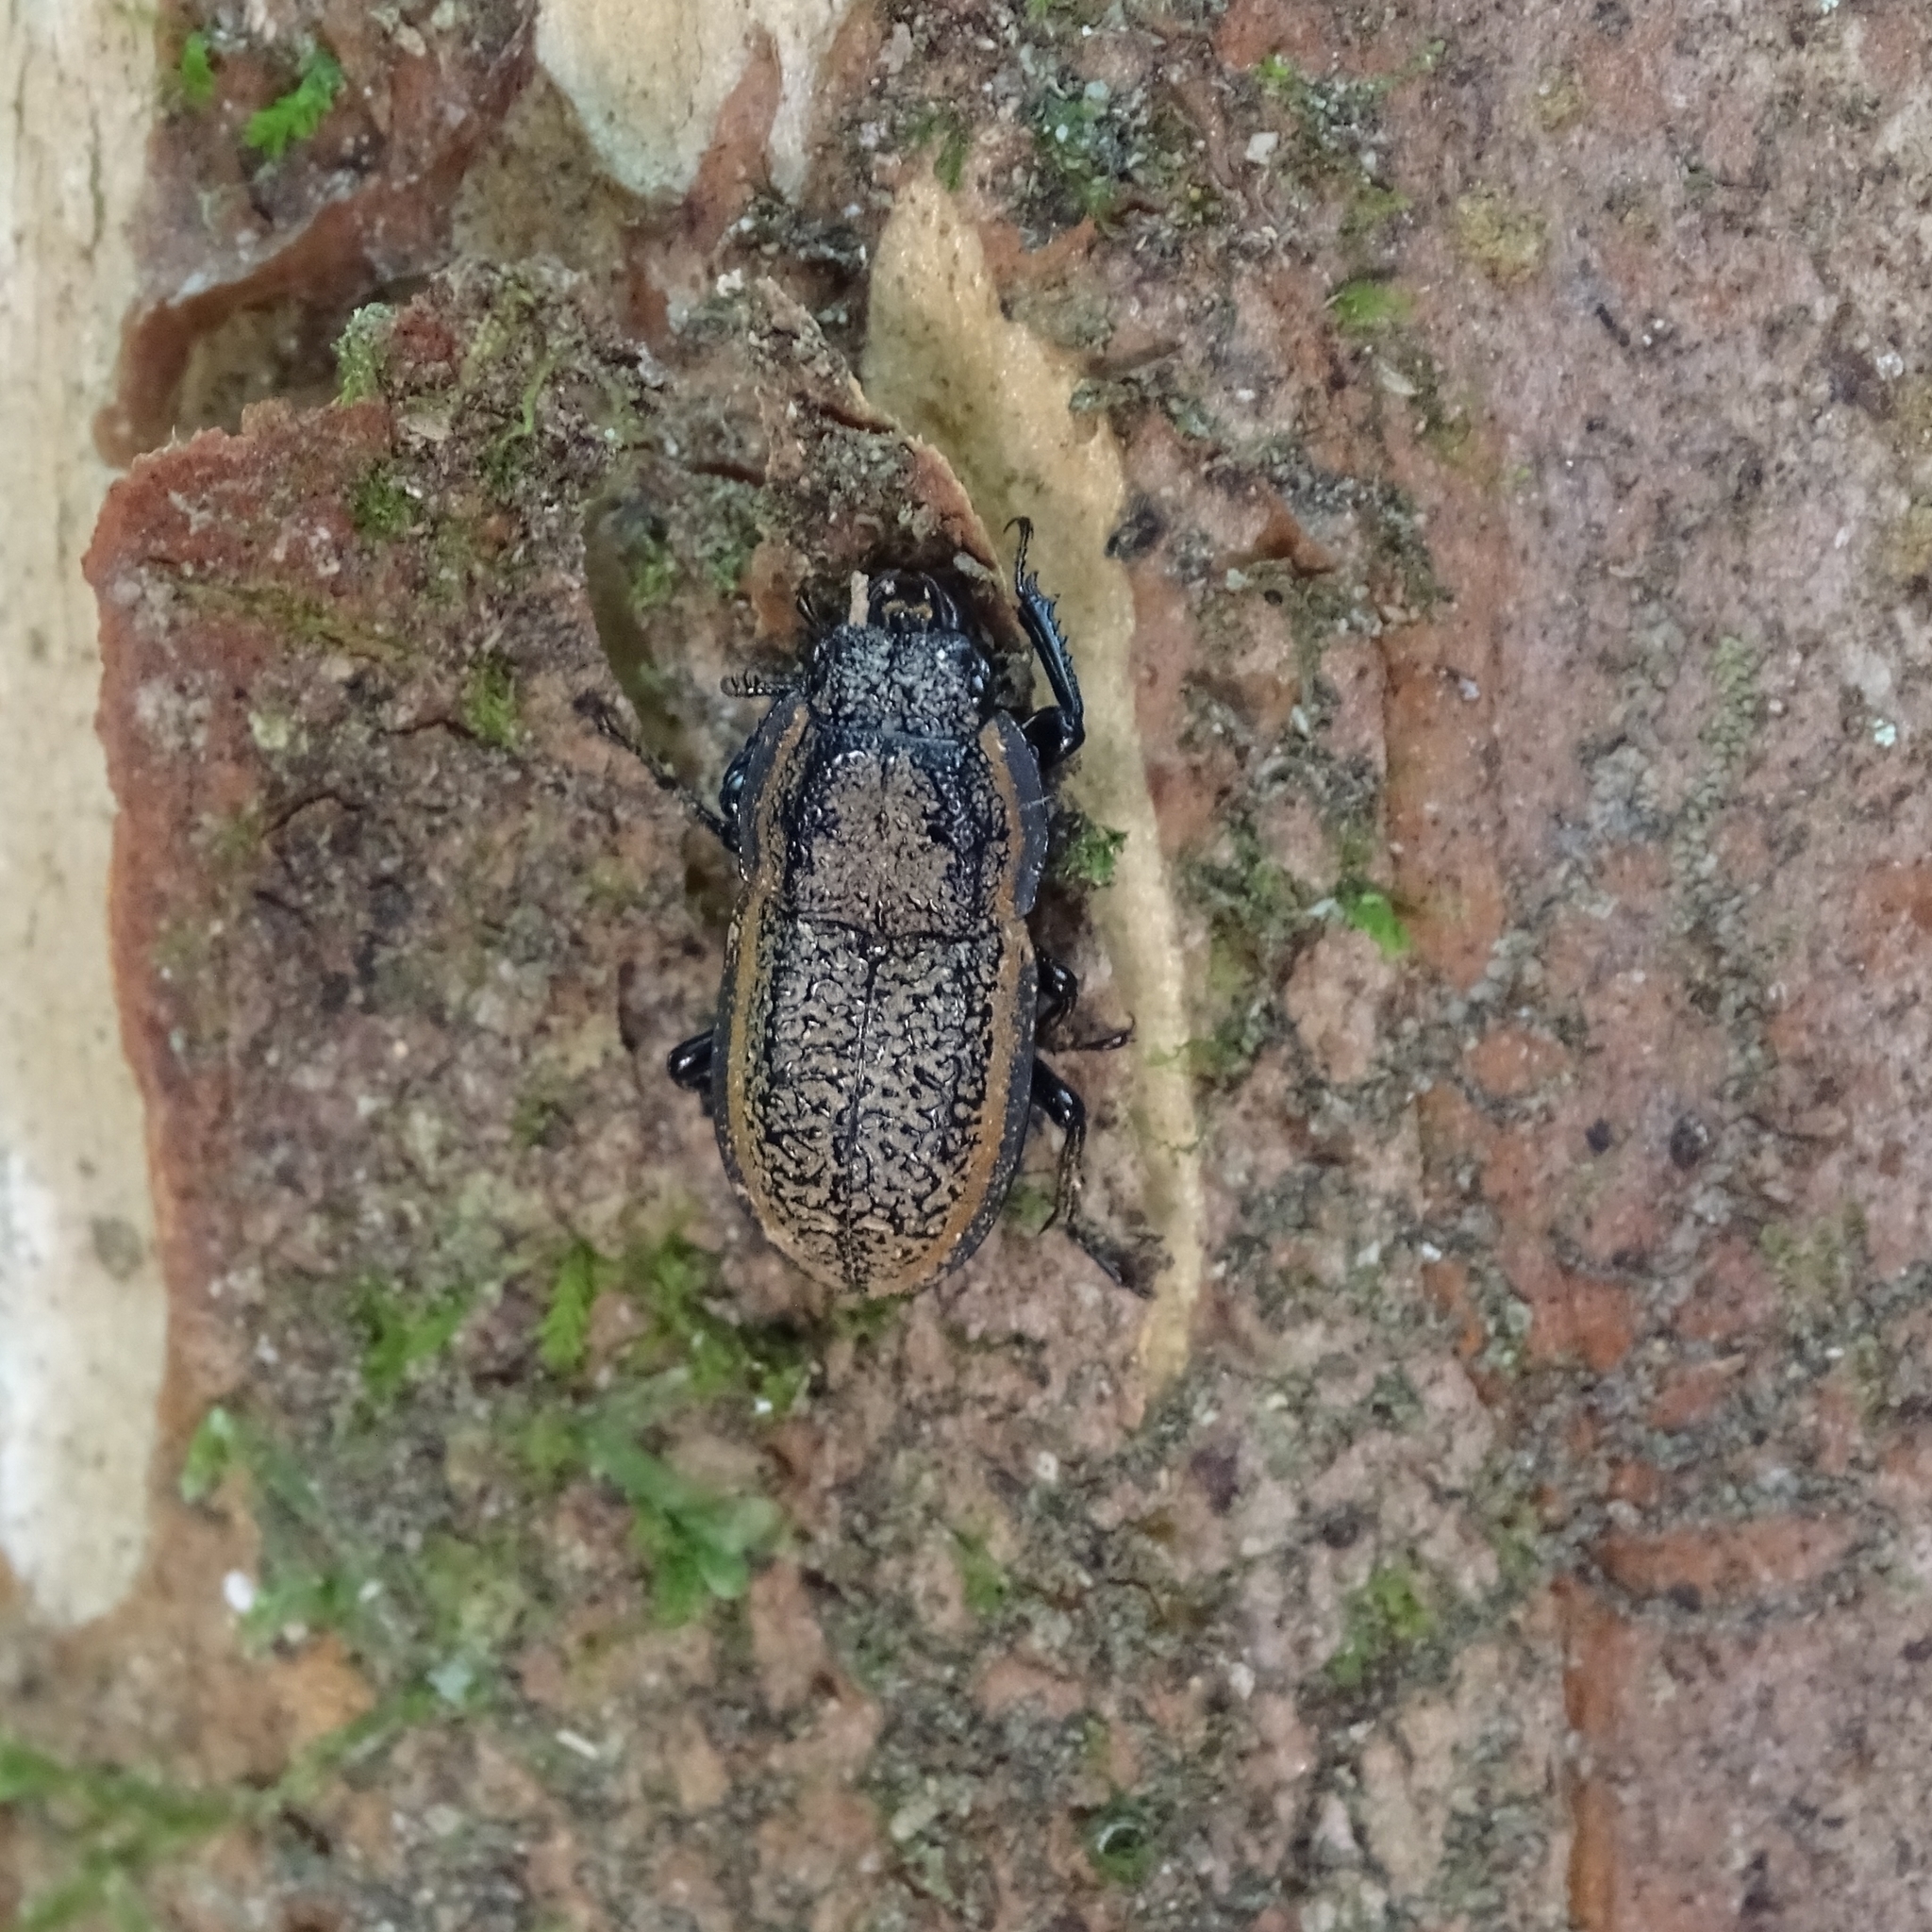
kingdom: Animalia
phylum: Arthropoda
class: Insecta
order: Coleoptera
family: Lucanidae
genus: Erichius
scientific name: Erichius caelatus
